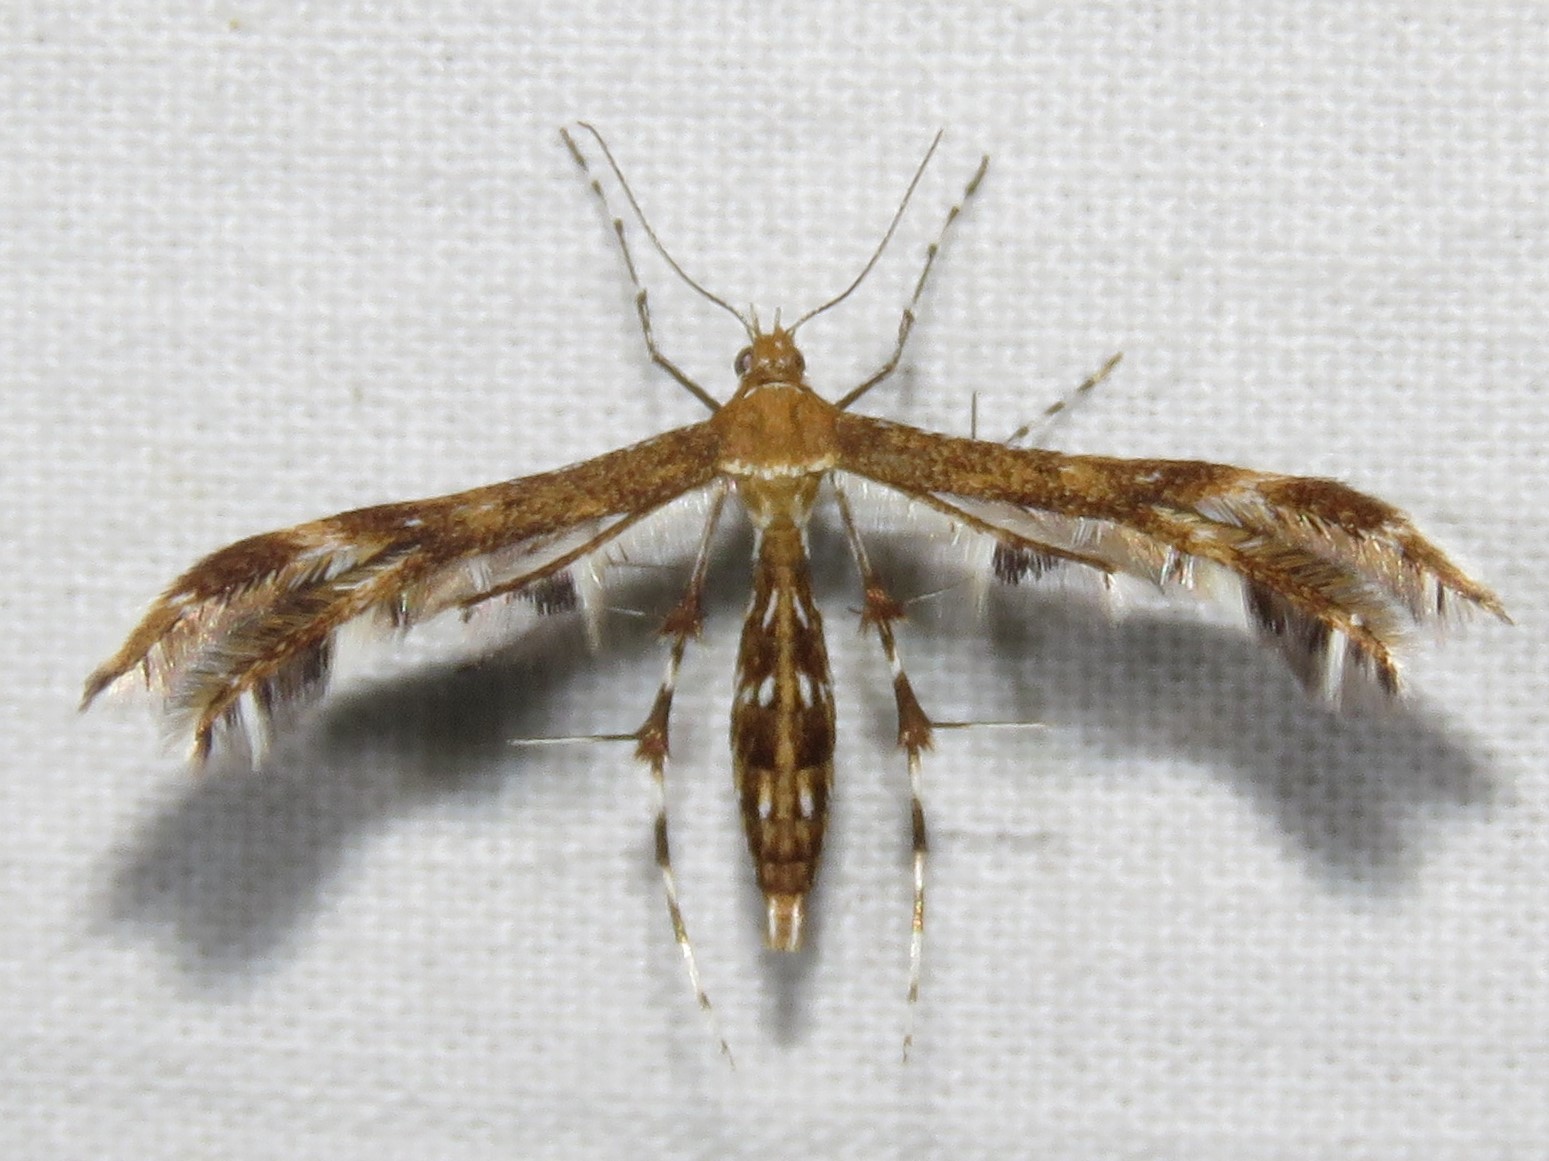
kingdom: Animalia
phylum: Arthropoda
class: Insecta
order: Lepidoptera
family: Pterophoridae
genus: Dejongia
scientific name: Dejongia lobidactylus
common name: Lobed plume moth
